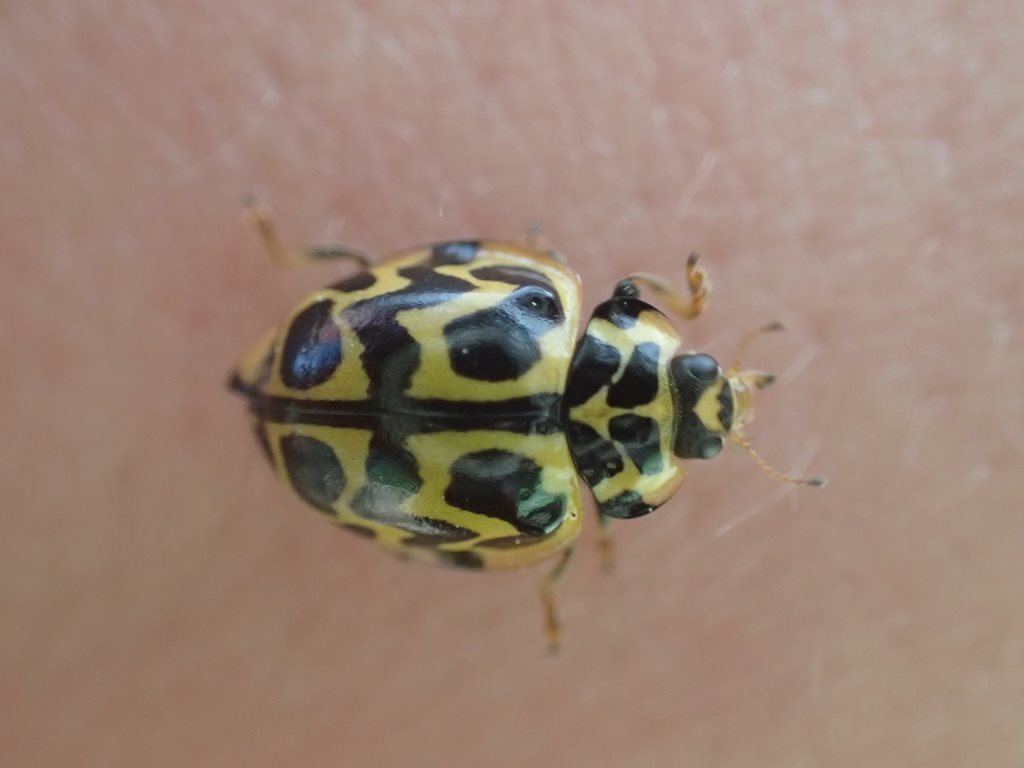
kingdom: Animalia
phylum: Arthropoda
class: Insecta
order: Coleoptera
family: Coccinellidae
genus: Cleobora
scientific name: Cleobora
